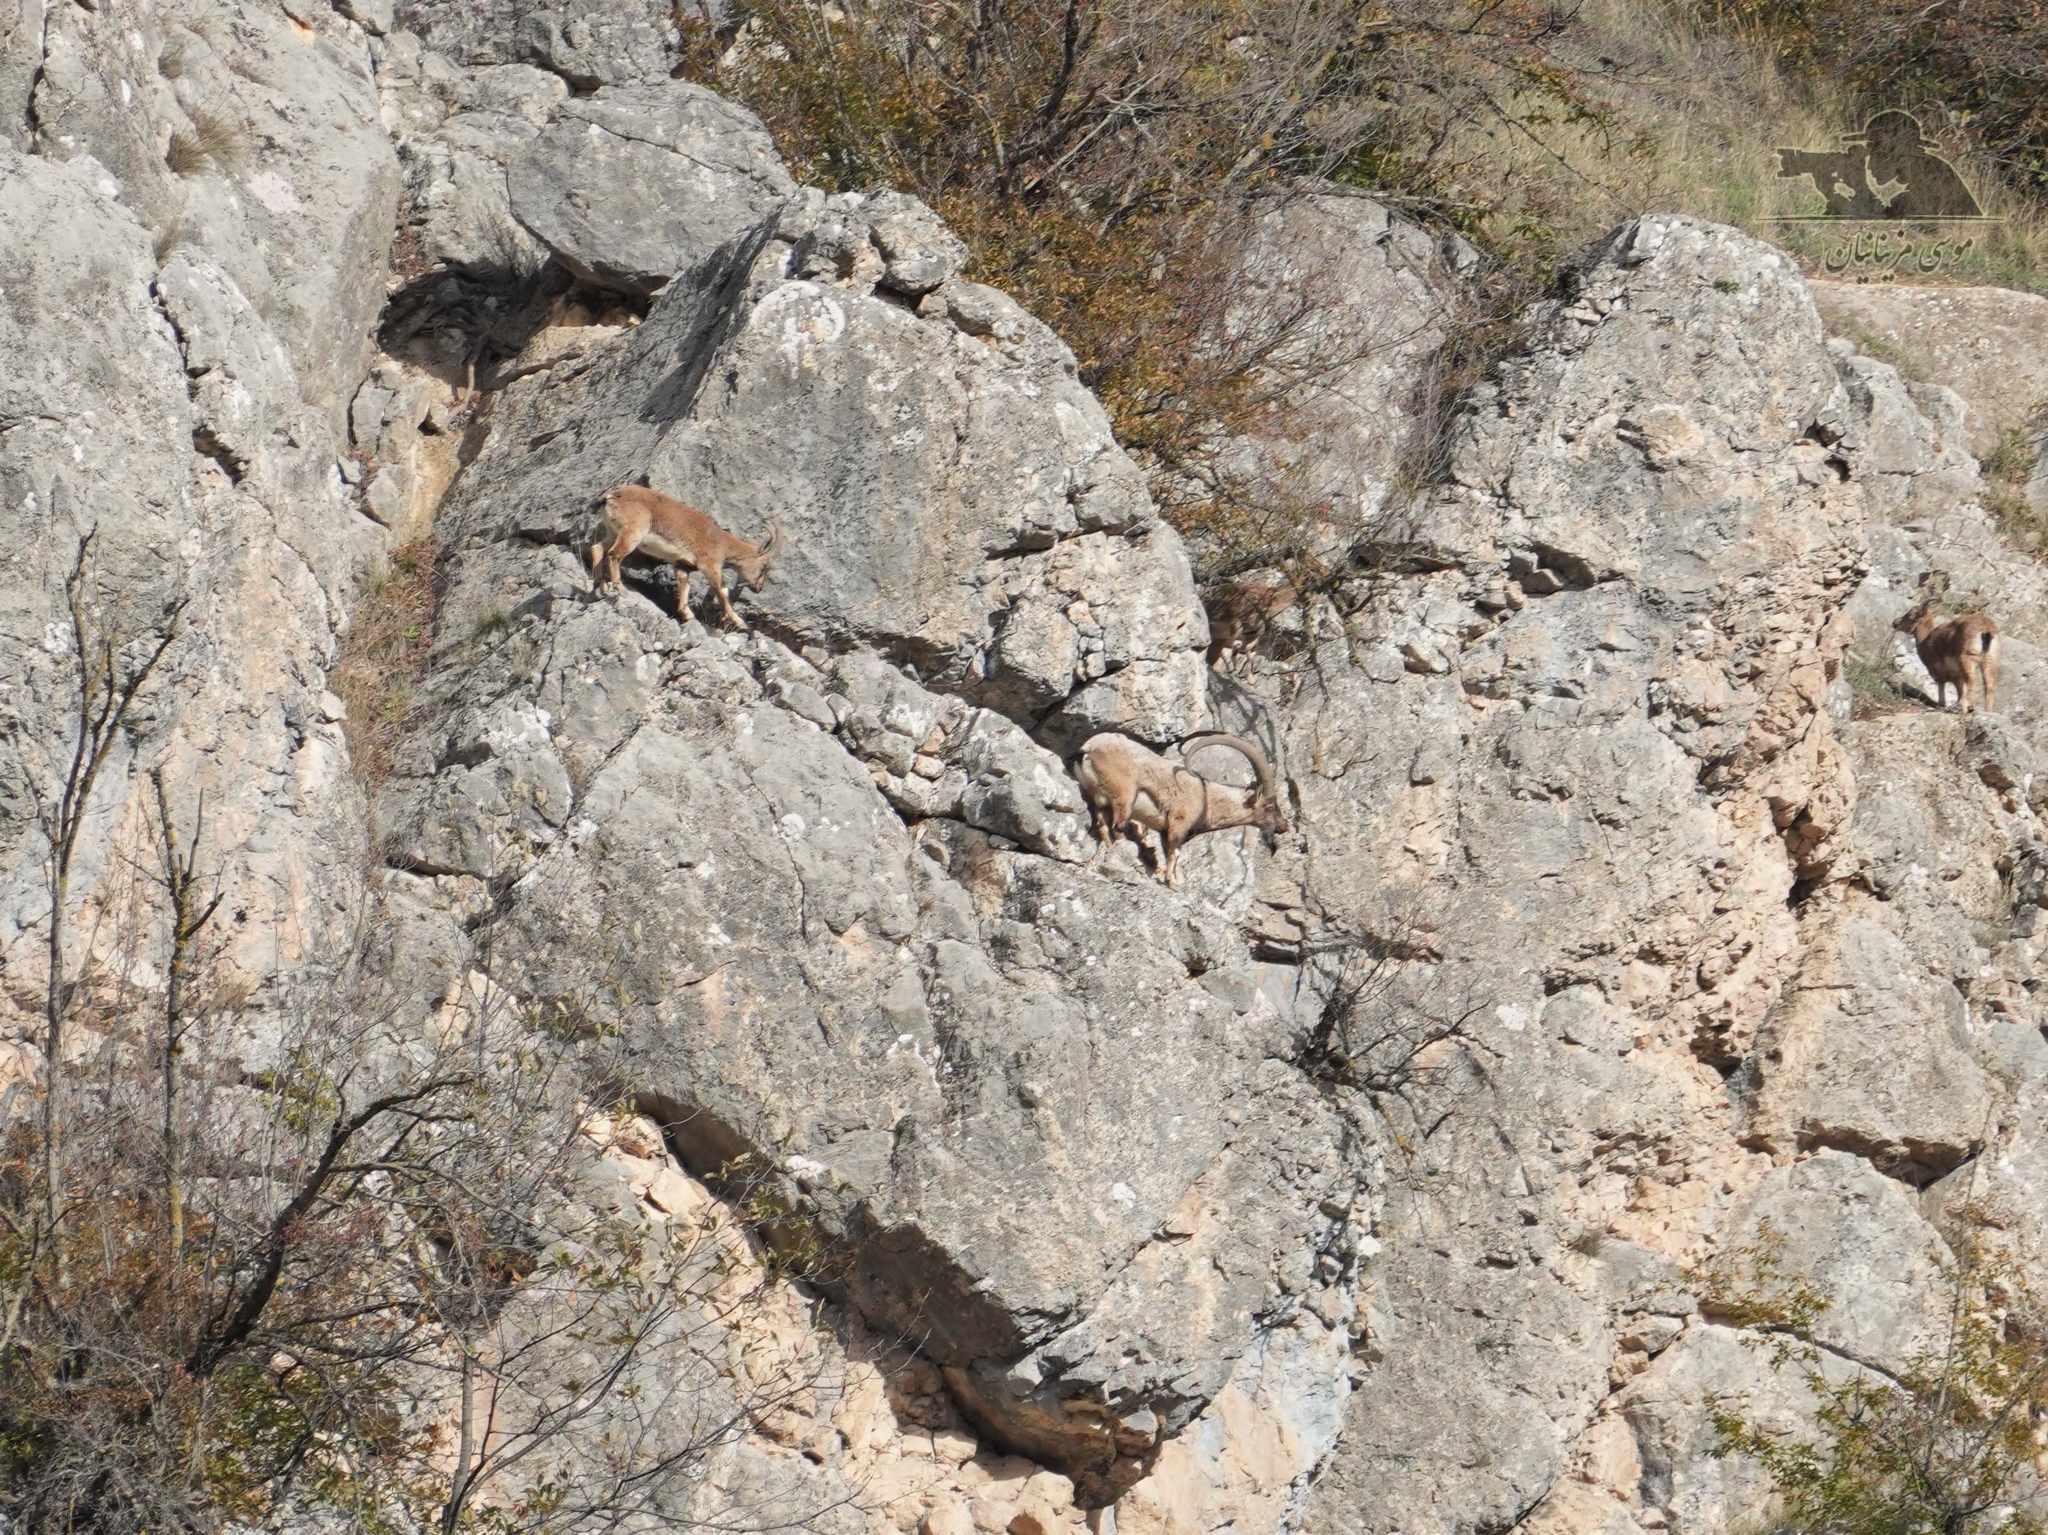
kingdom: Animalia
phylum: Chordata
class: Mammalia
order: Artiodactyla
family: Bovidae
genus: Capra
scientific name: Capra hircus
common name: Domestic goat
